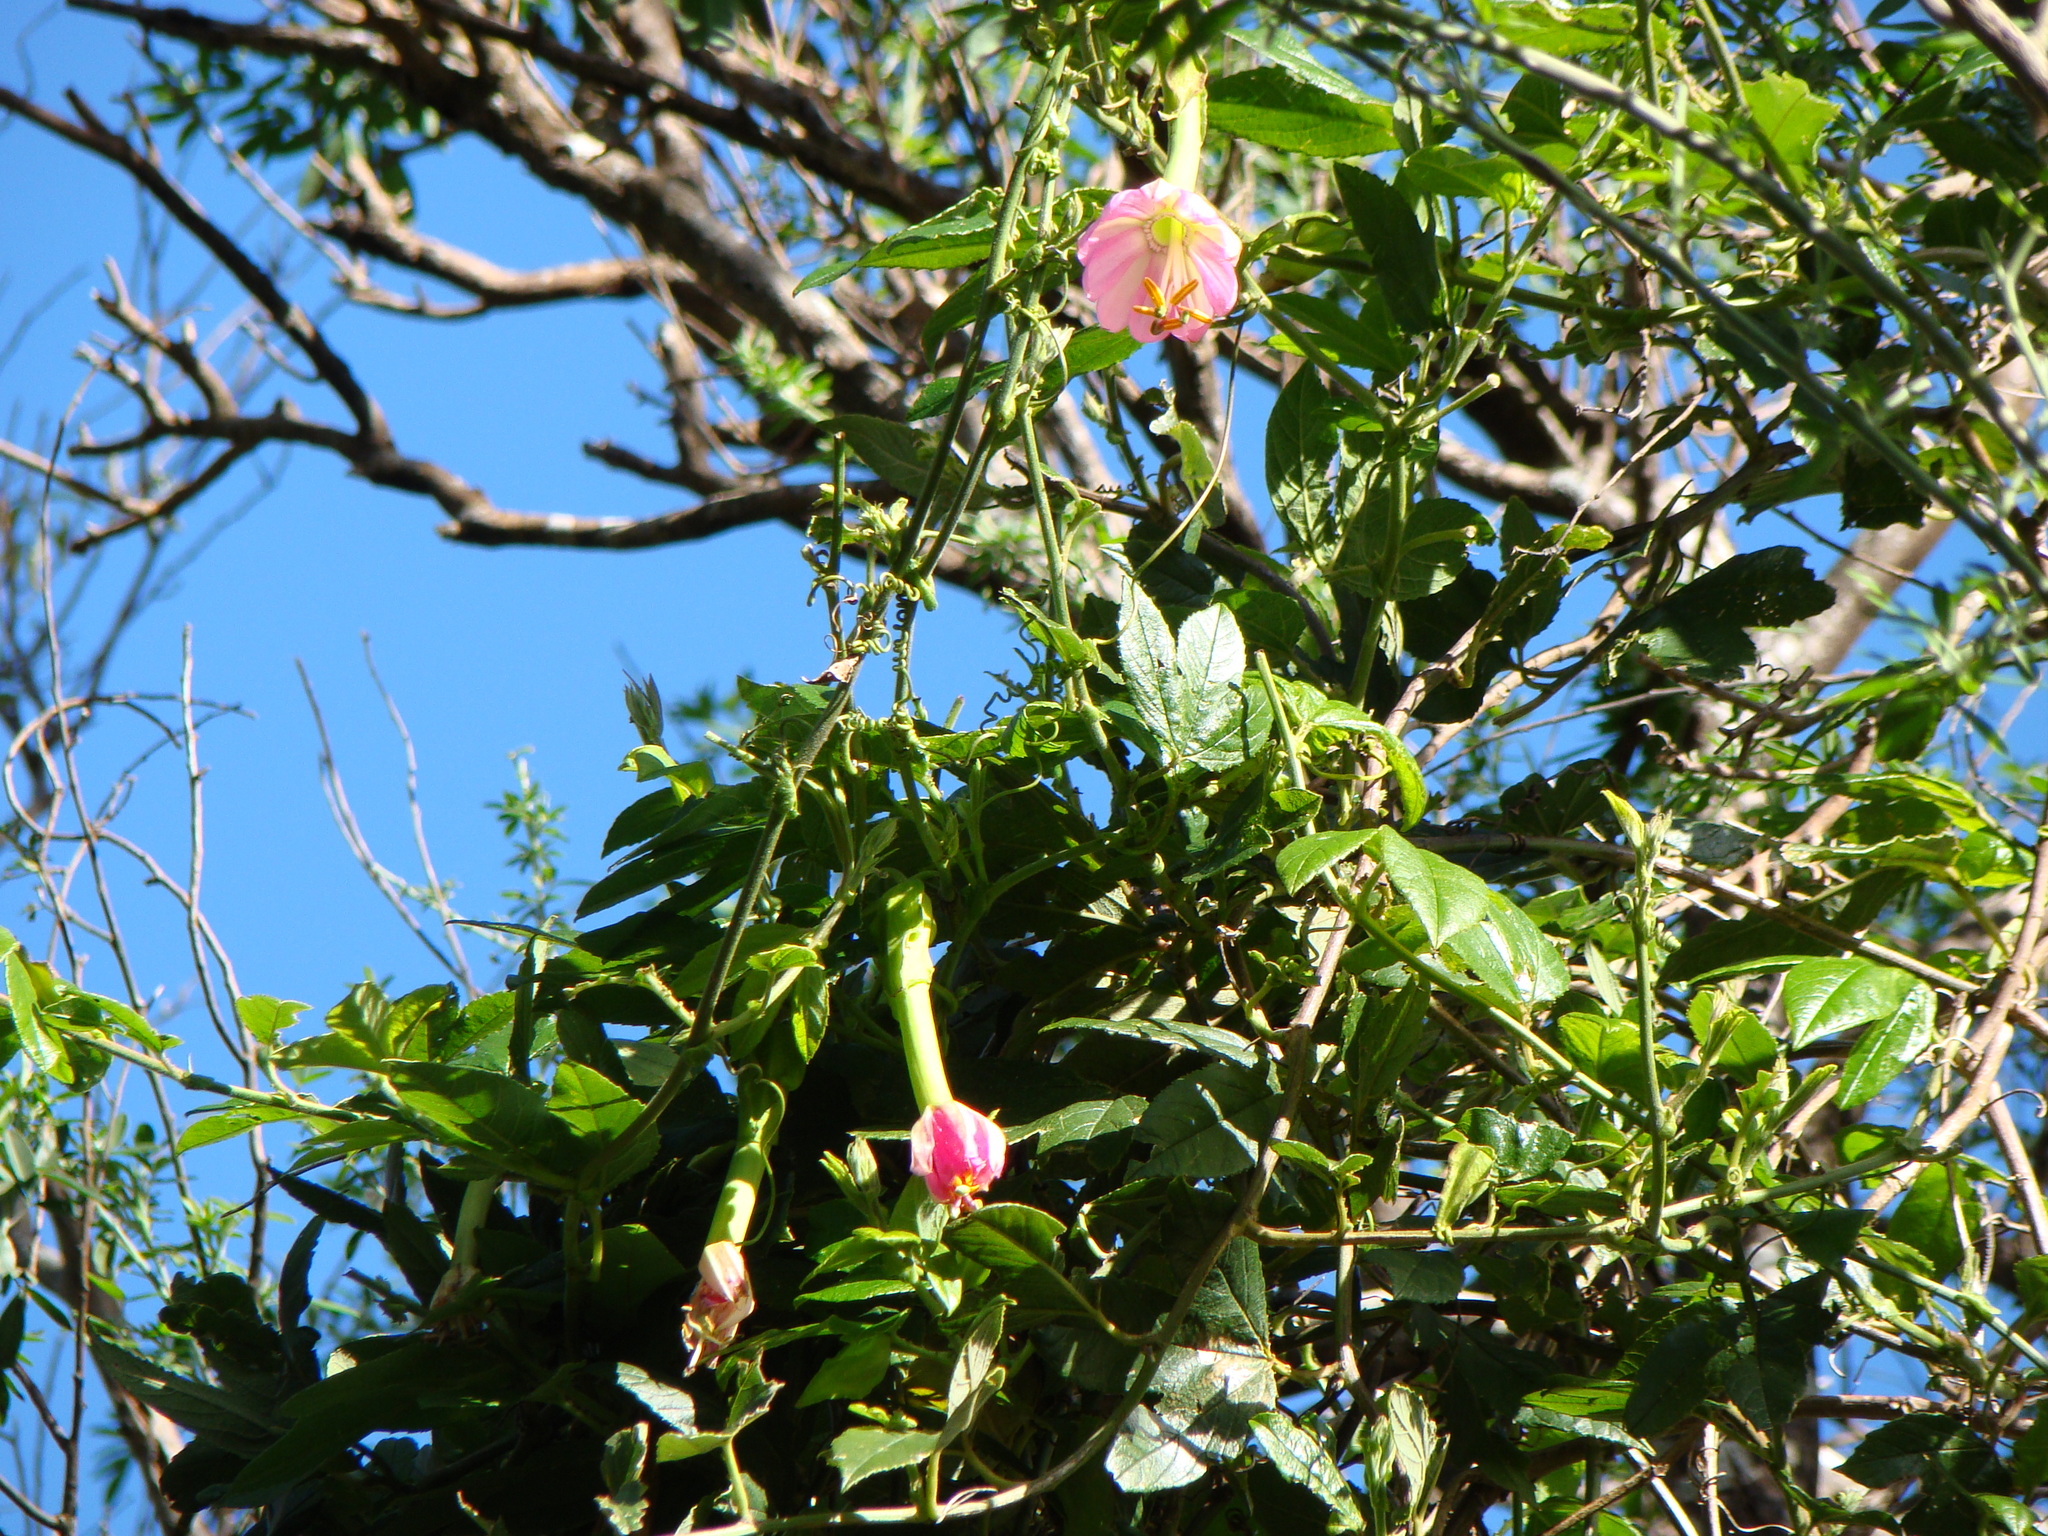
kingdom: Plantae
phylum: Tracheophyta
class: Magnoliopsida
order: Malpighiales
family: Passifloraceae
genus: Passiflora
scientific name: Passiflora tripartita
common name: Banana poka
